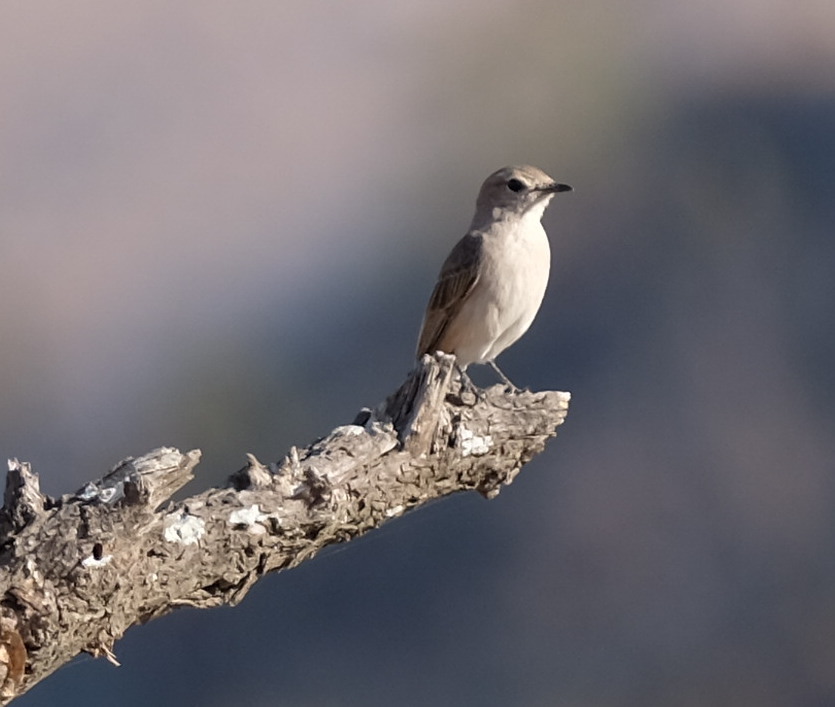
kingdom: Animalia
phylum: Chordata
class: Aves
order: Passeriformes
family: Muscicapidae
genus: Bradornis
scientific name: Bradornis pallidus
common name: Pale flycatcher
